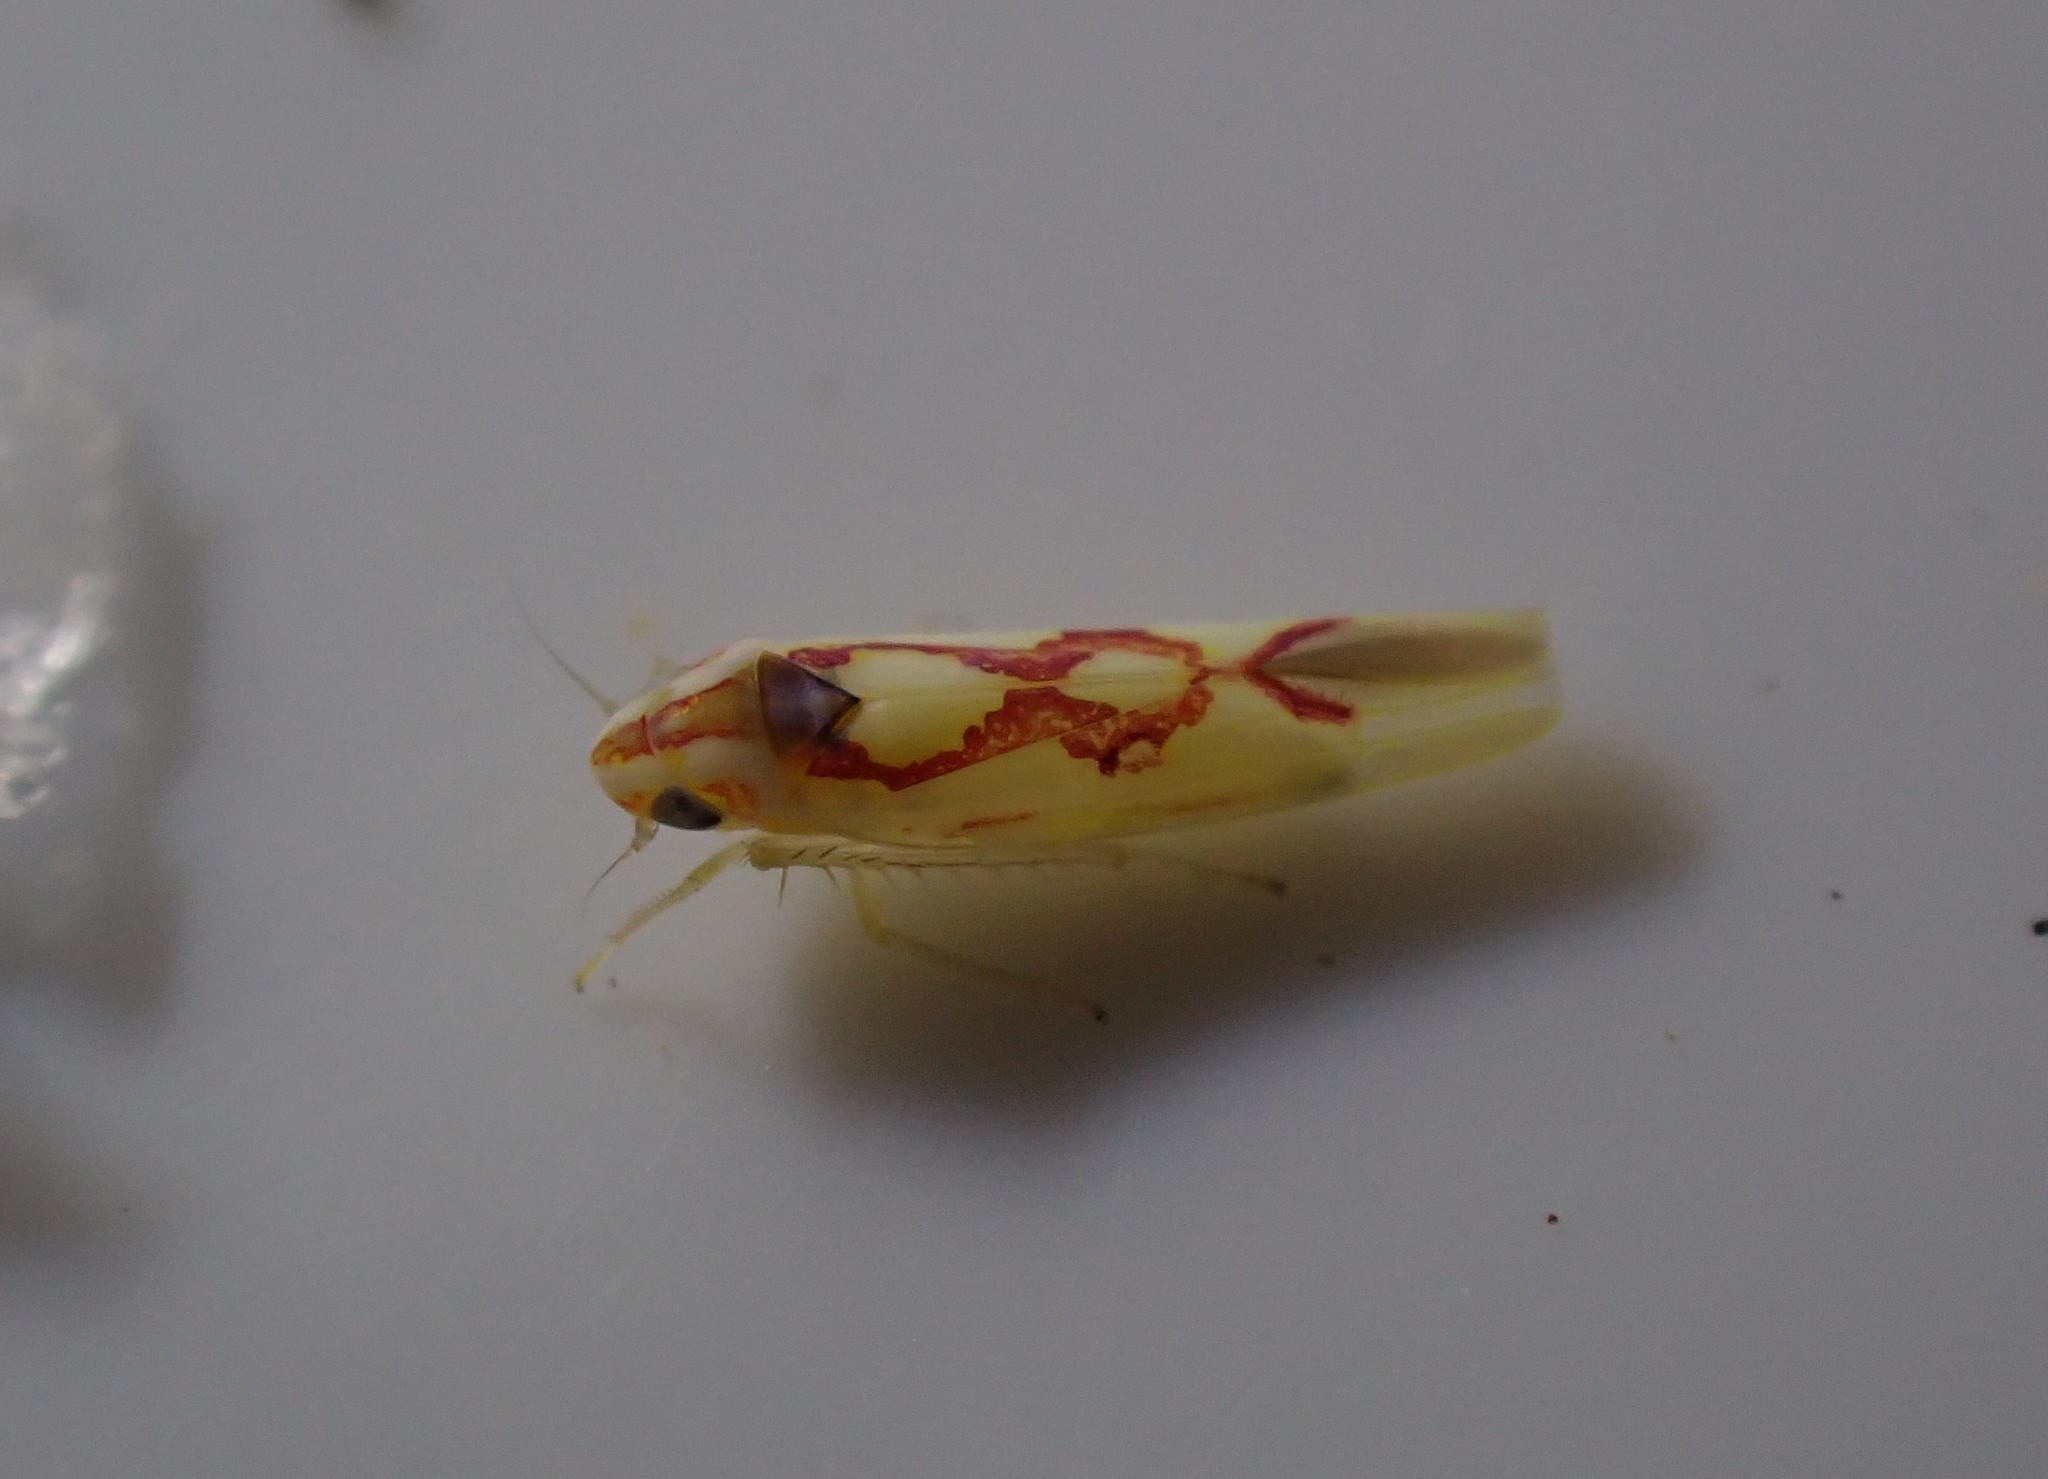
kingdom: Animalia
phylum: Arthropoda
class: Insecta
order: Hemiptera
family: Cicadellidae
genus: Zygina
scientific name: Zygina flammigera
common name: Leafhopper
